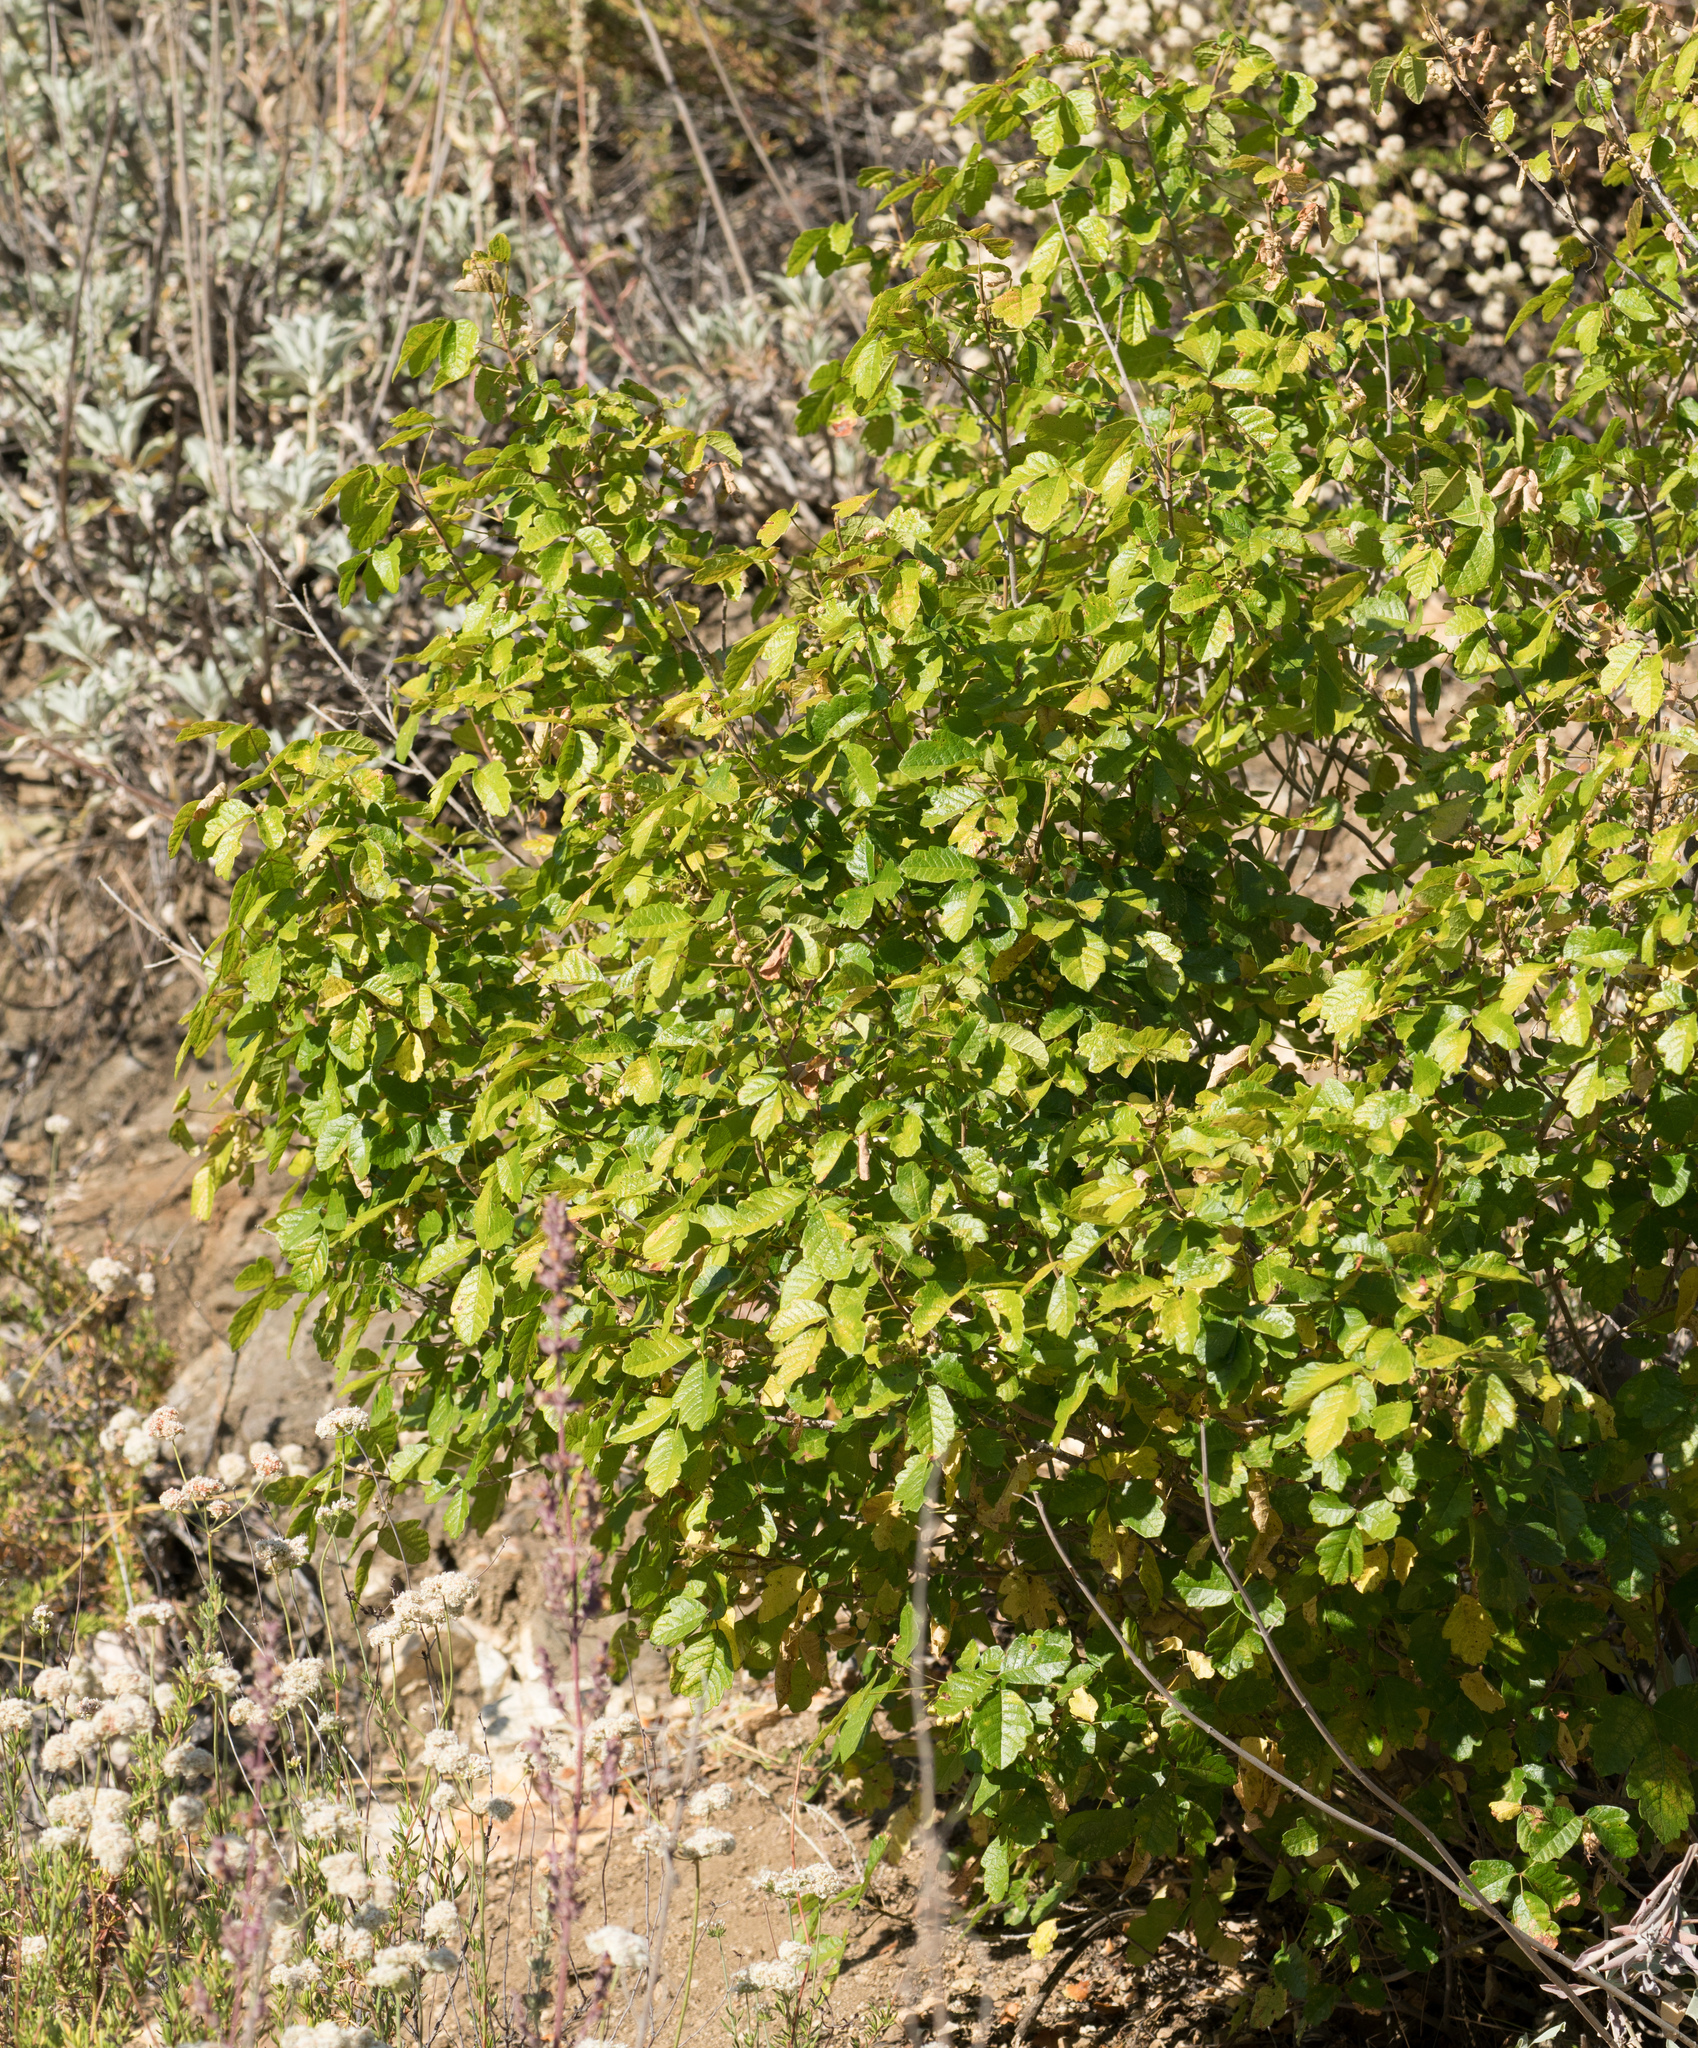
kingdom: Plantae
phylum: Tracheophyta
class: Magnoliopsida
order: Sapindales
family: Anacardiaceae
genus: Toxicodendron
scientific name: Toxicodendron diversilobum
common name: Pacific poison-oak
